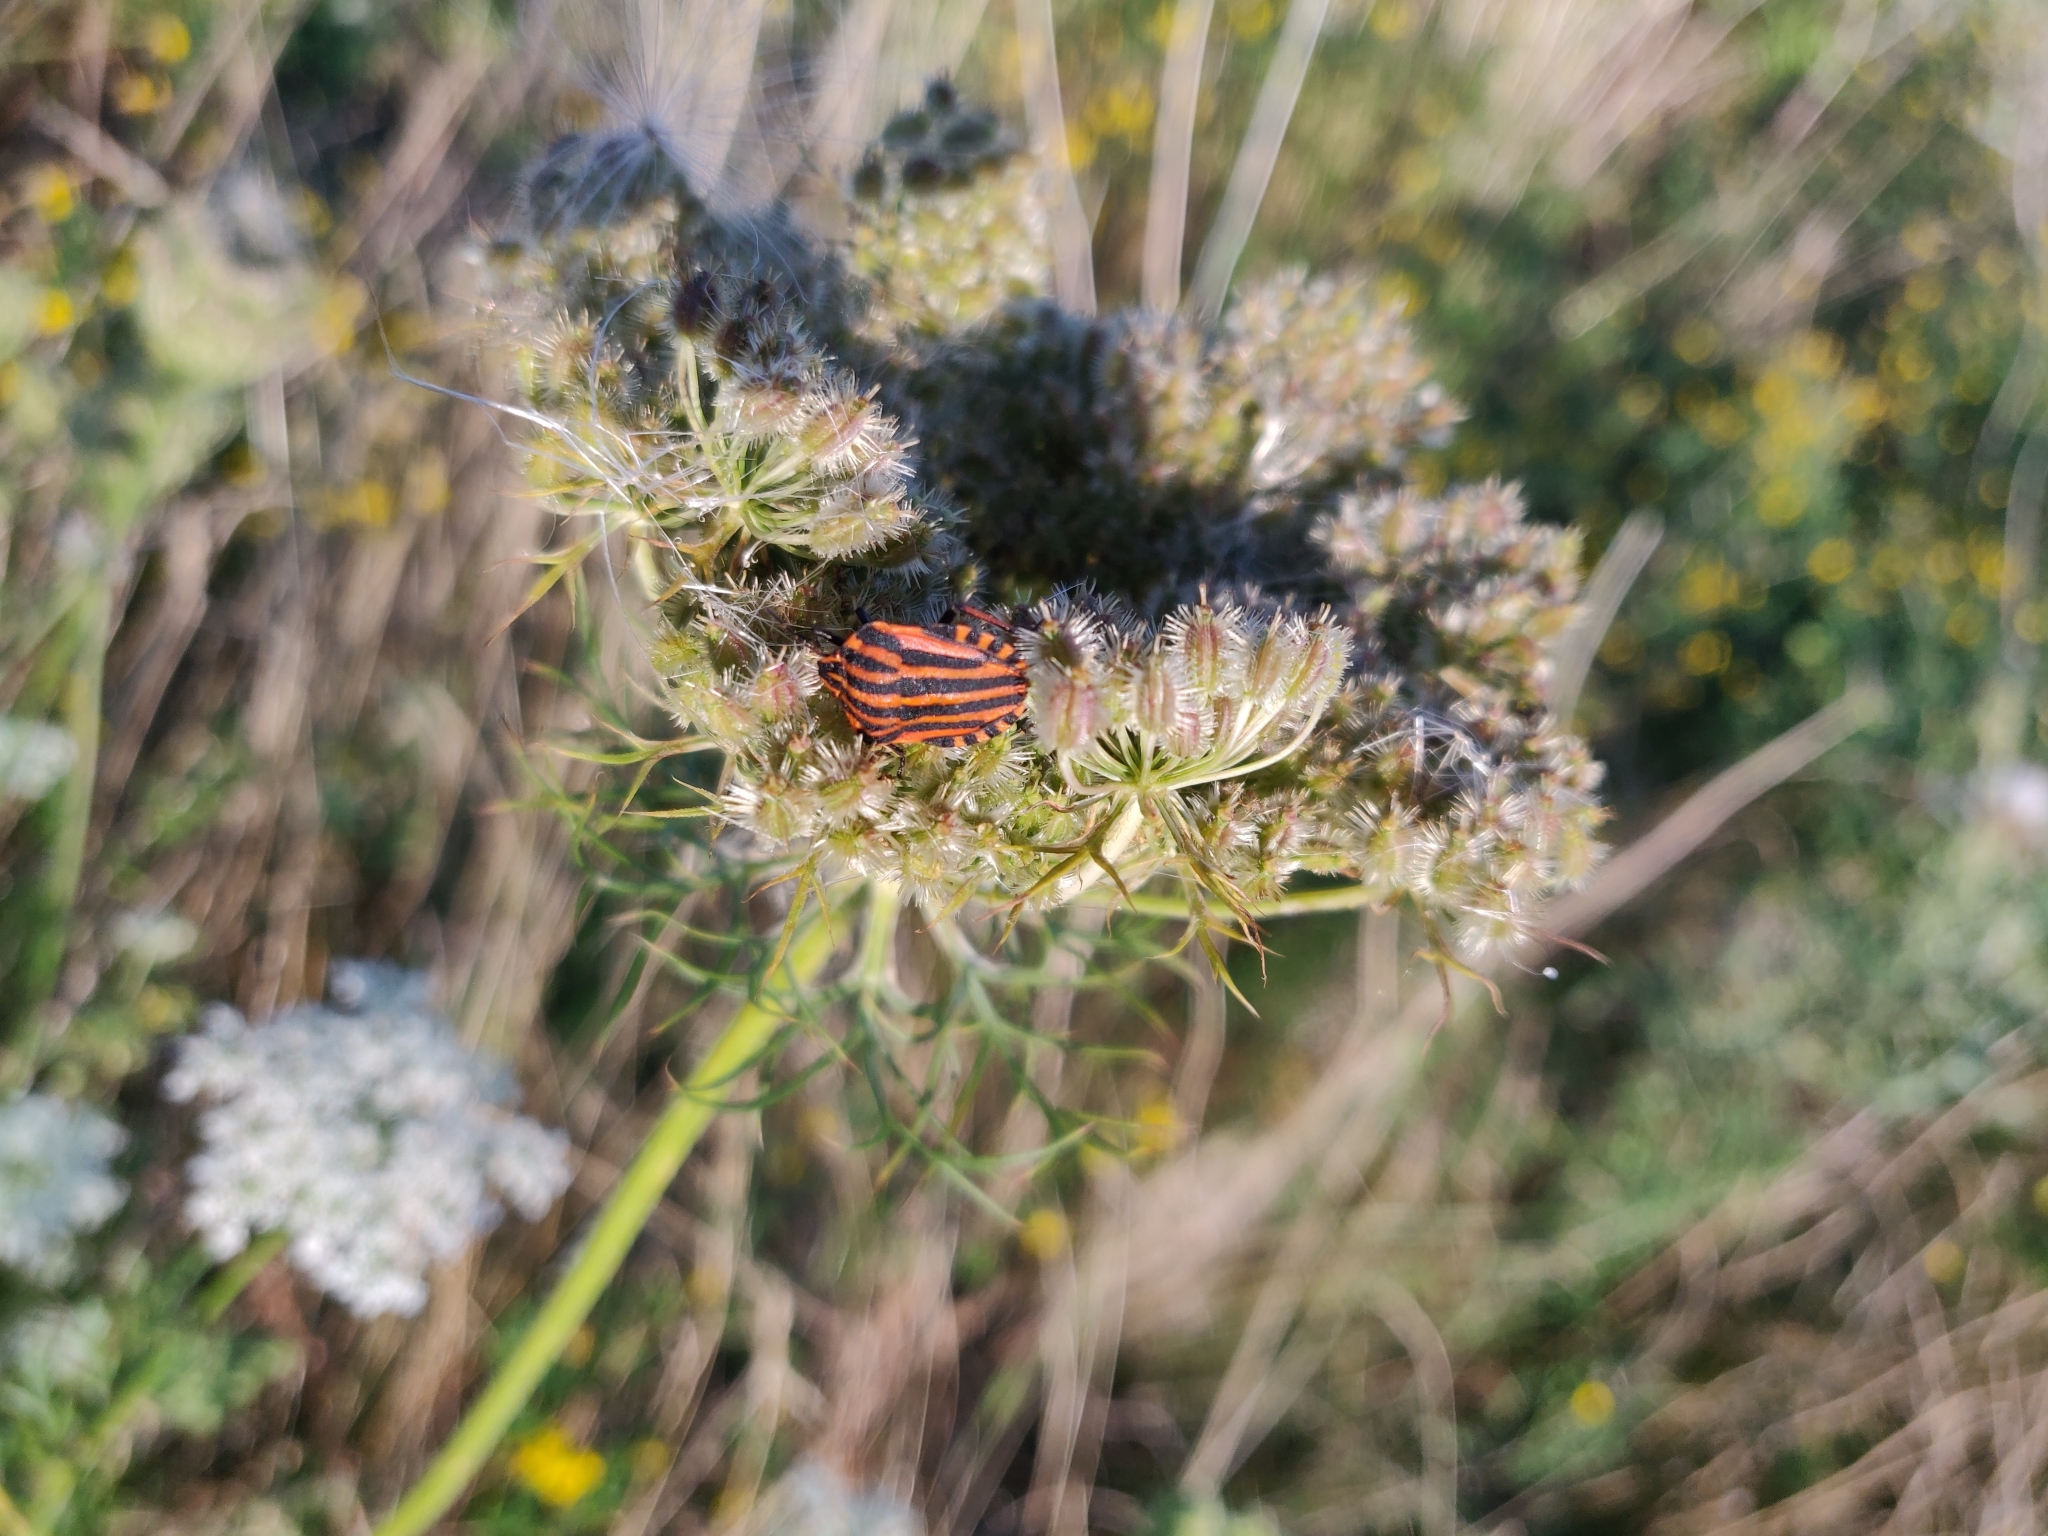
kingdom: Animalia
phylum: Arthropoda
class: Insecta
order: Hemiptera
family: Pentatomidae
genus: Graphosoma
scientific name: Graphosoma italicum
